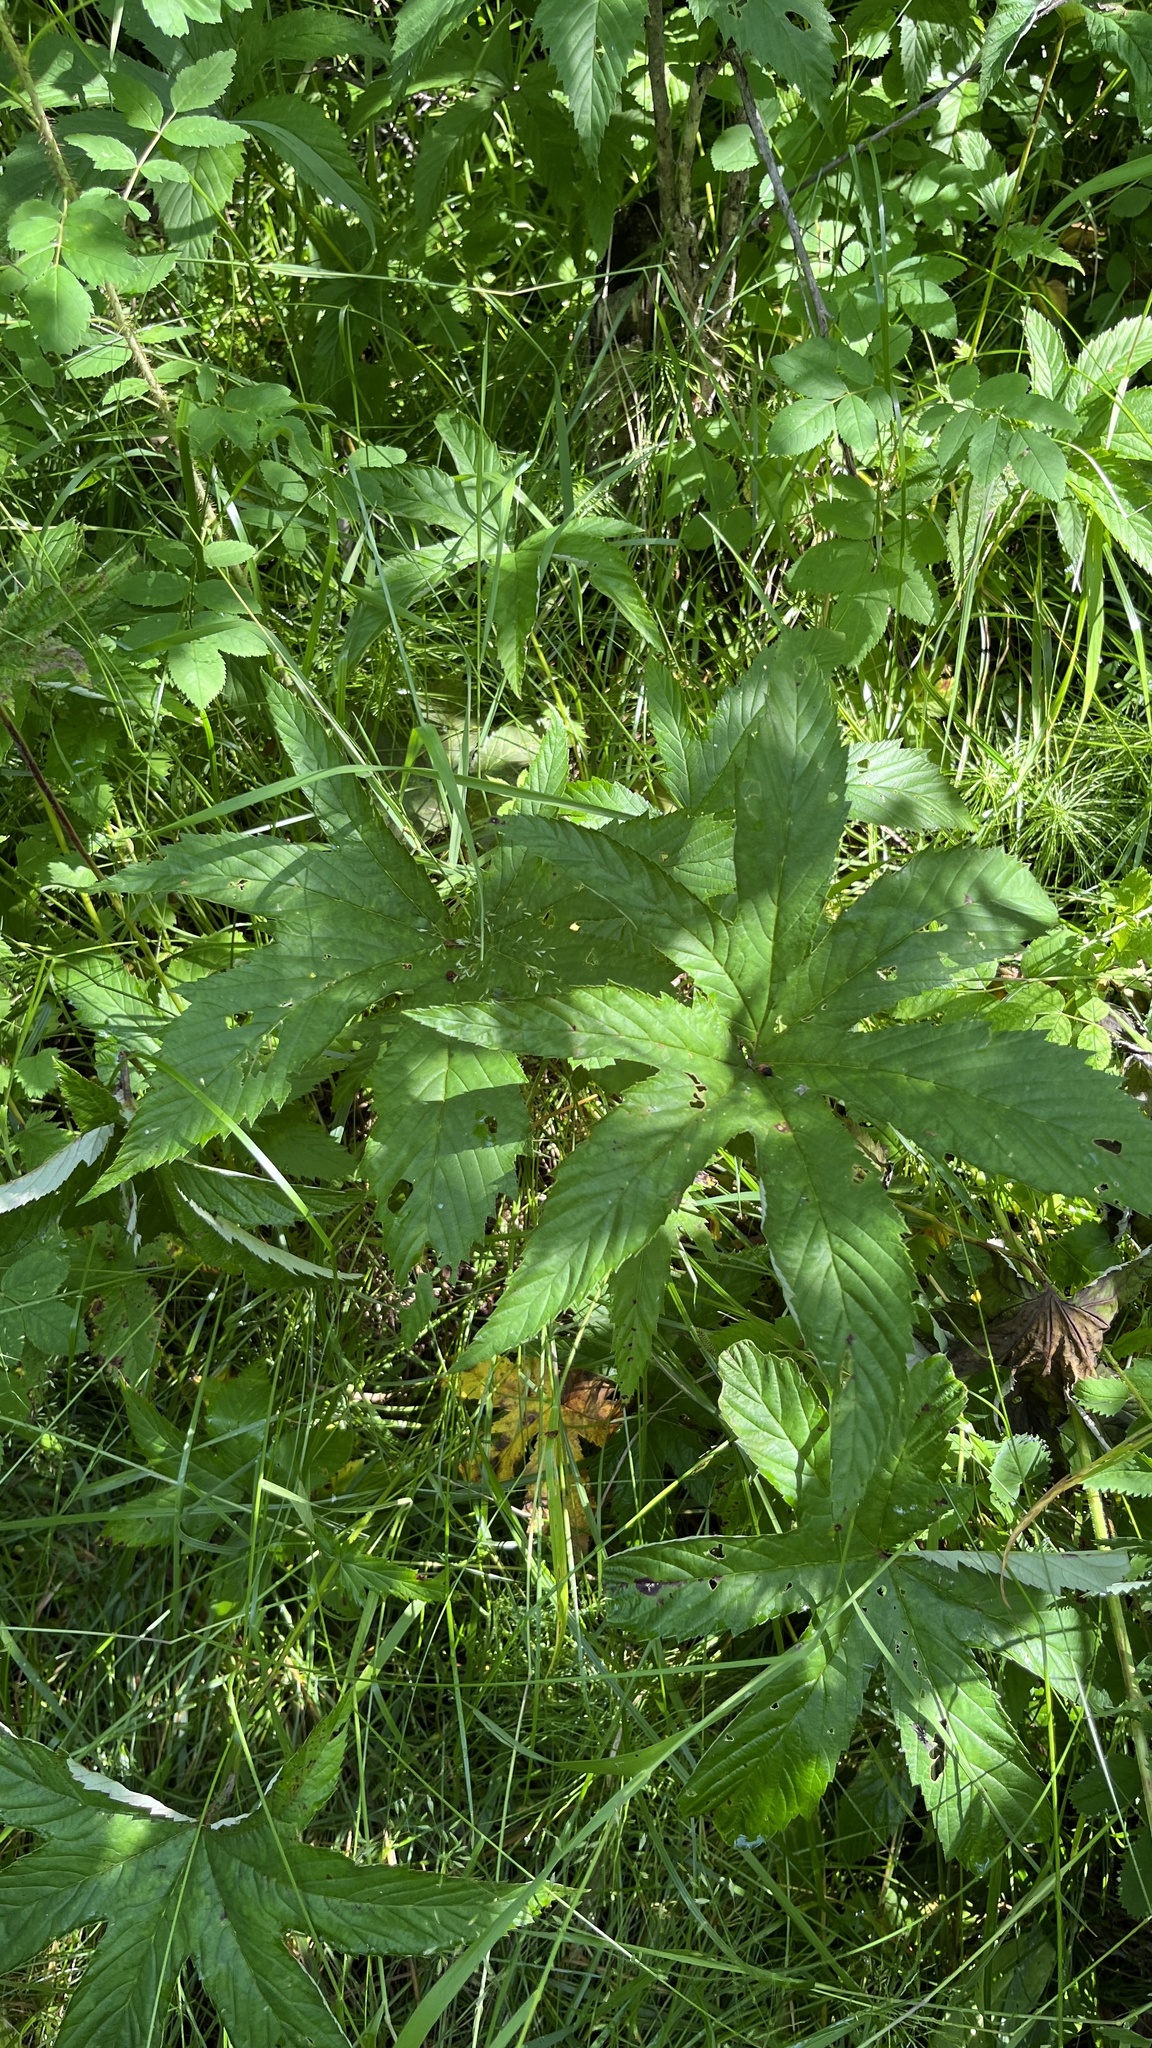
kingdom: Plantae
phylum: Tracheophyta
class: Magnoliopsida
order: Rosales
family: Rosaceae
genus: Filipendula
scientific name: Filipendula digitata
